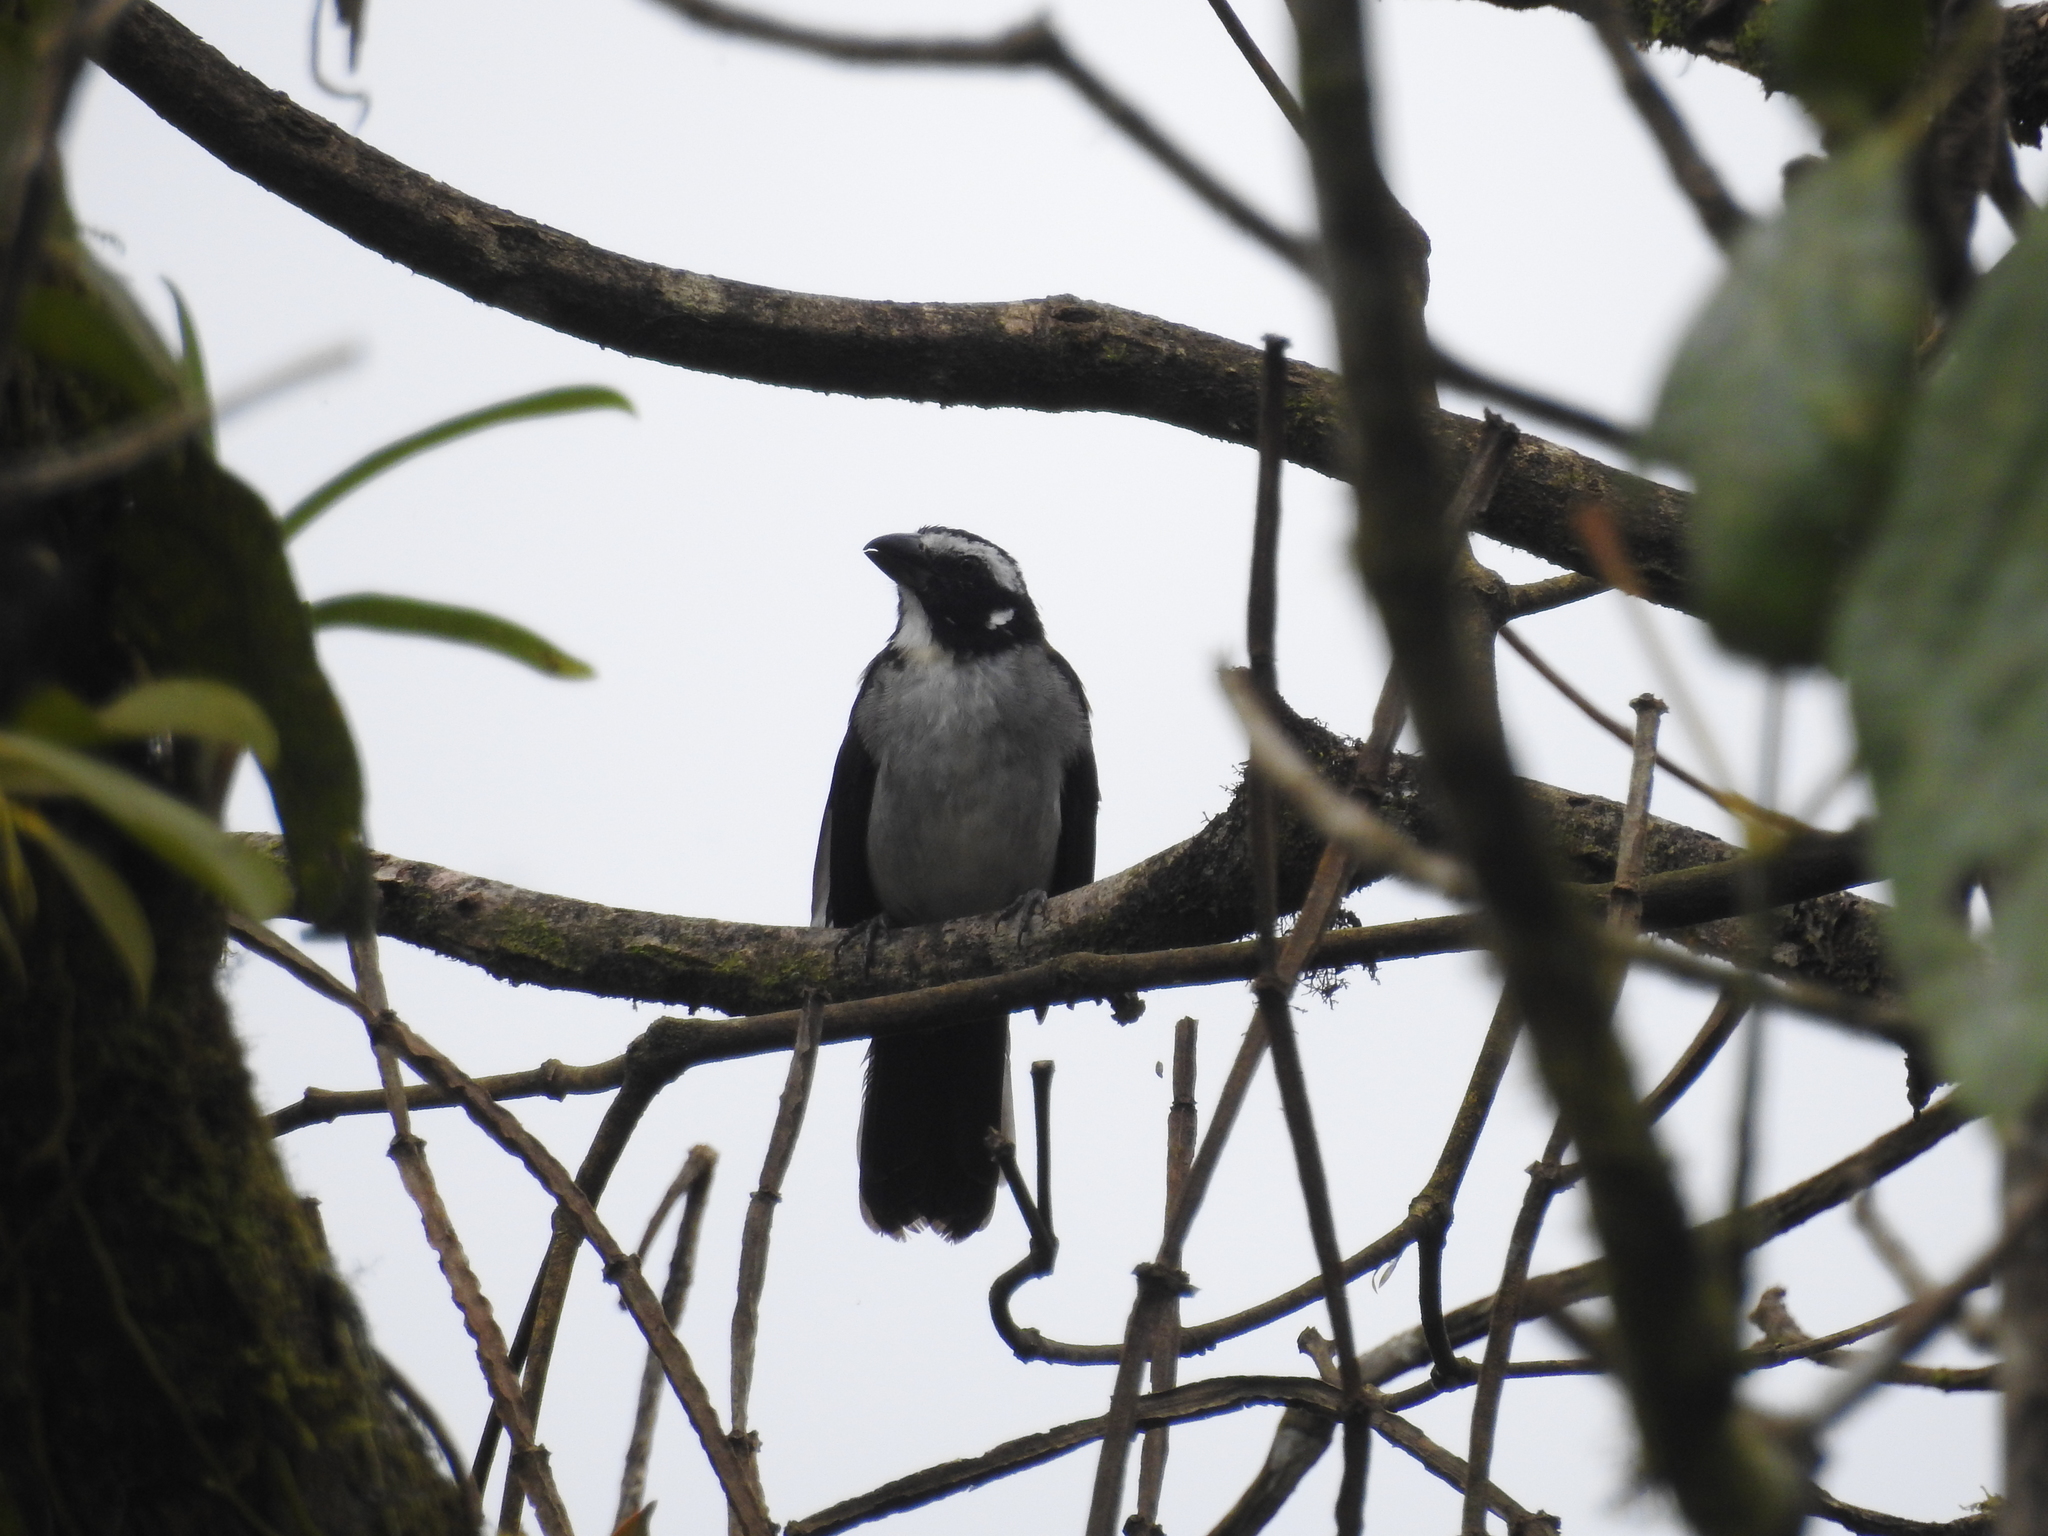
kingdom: Animalia
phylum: Chordata
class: Aves
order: Passeriformes
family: Thraupidae
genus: Saltator
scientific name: Saltator atripennis
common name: Black-winged saltator
